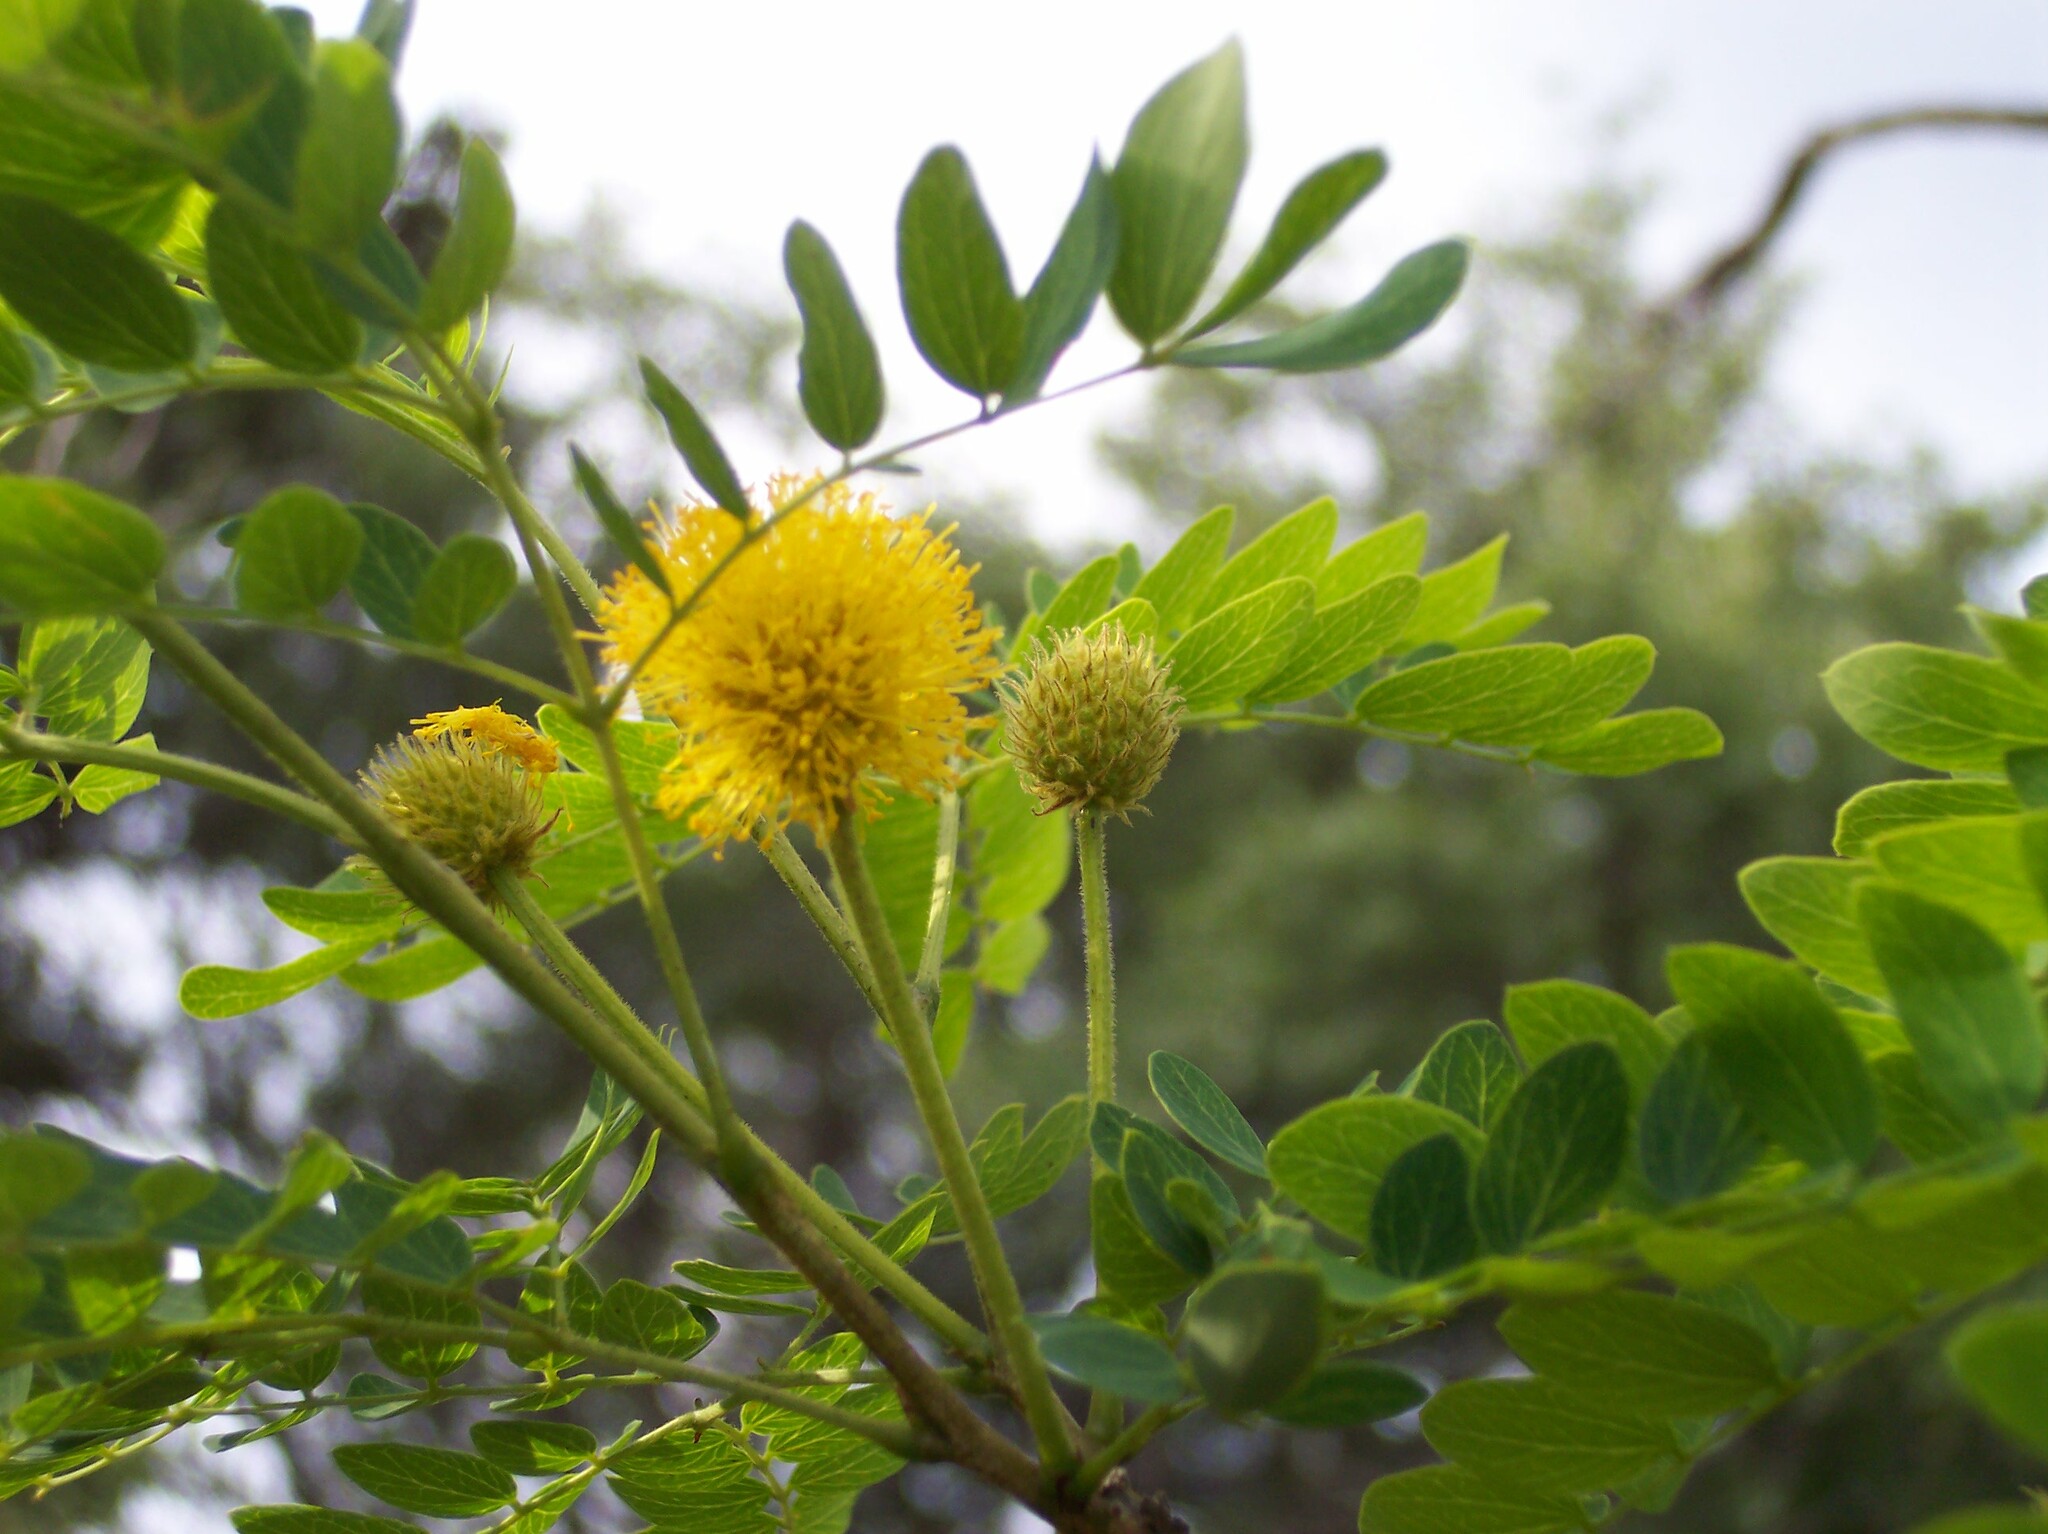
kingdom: Plantae
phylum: Tracheophyta
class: Magnoliopsida
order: Fabales
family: Fabaceae
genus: Leucaena
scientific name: Leucaena retusa
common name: Littleleaf leadtree
